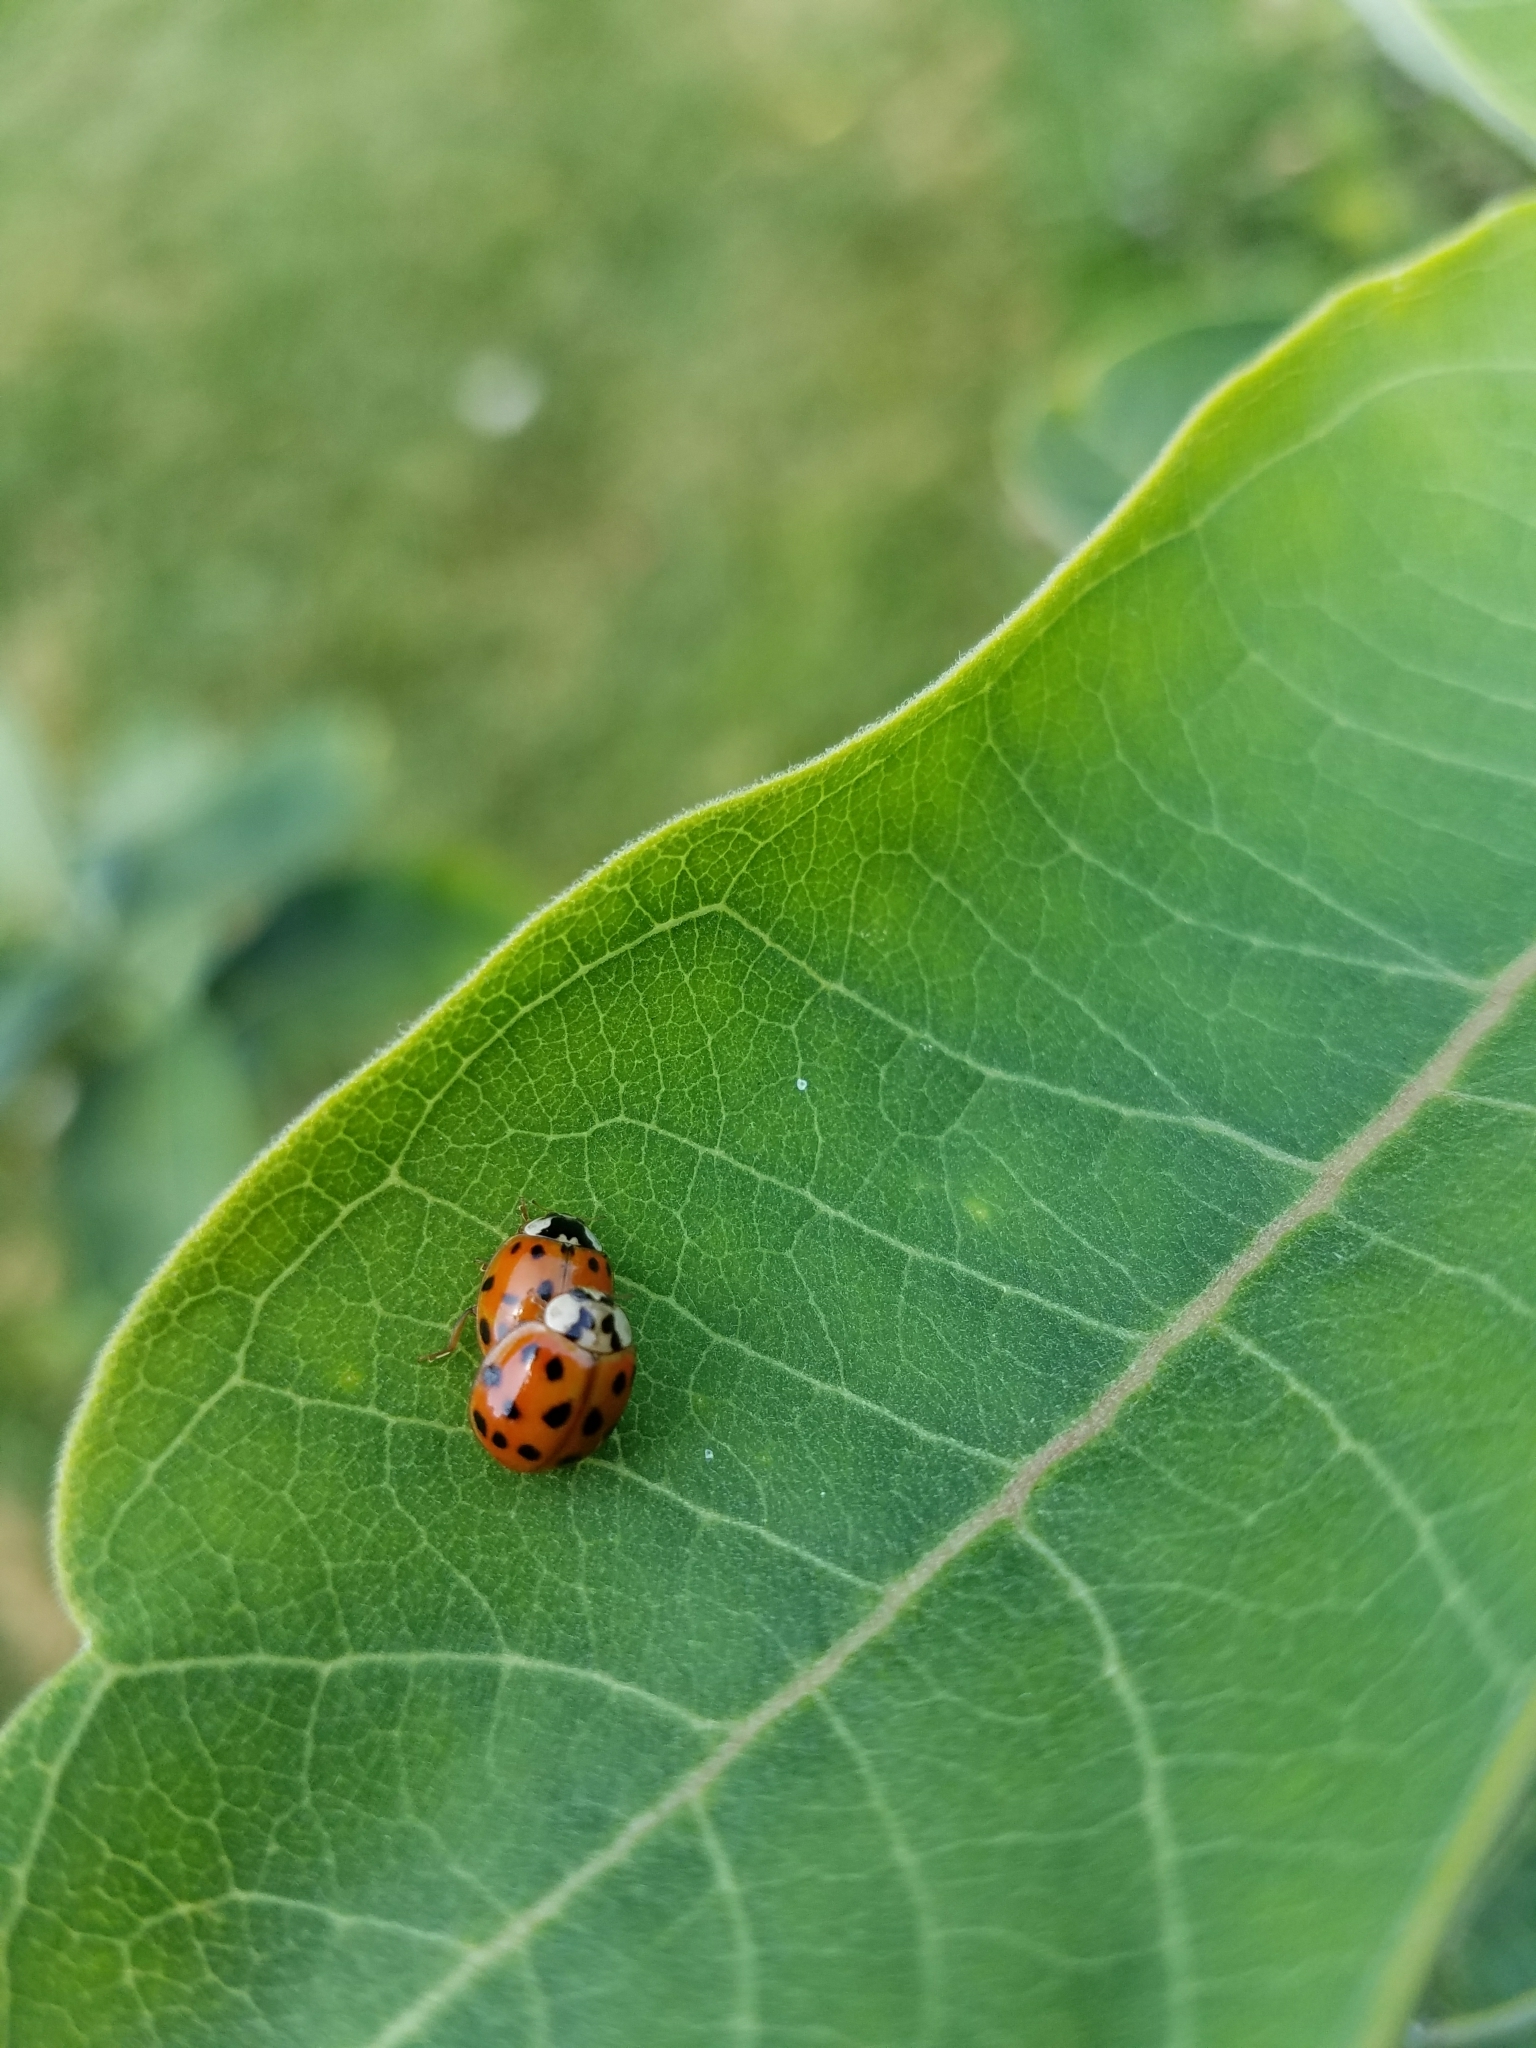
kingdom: Animalia
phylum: Arthropoda
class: Insecta
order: Coleoptera
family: Coccinellidae
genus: Harmonia
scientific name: Harmonia axyridis
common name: Harlequin ladybird
